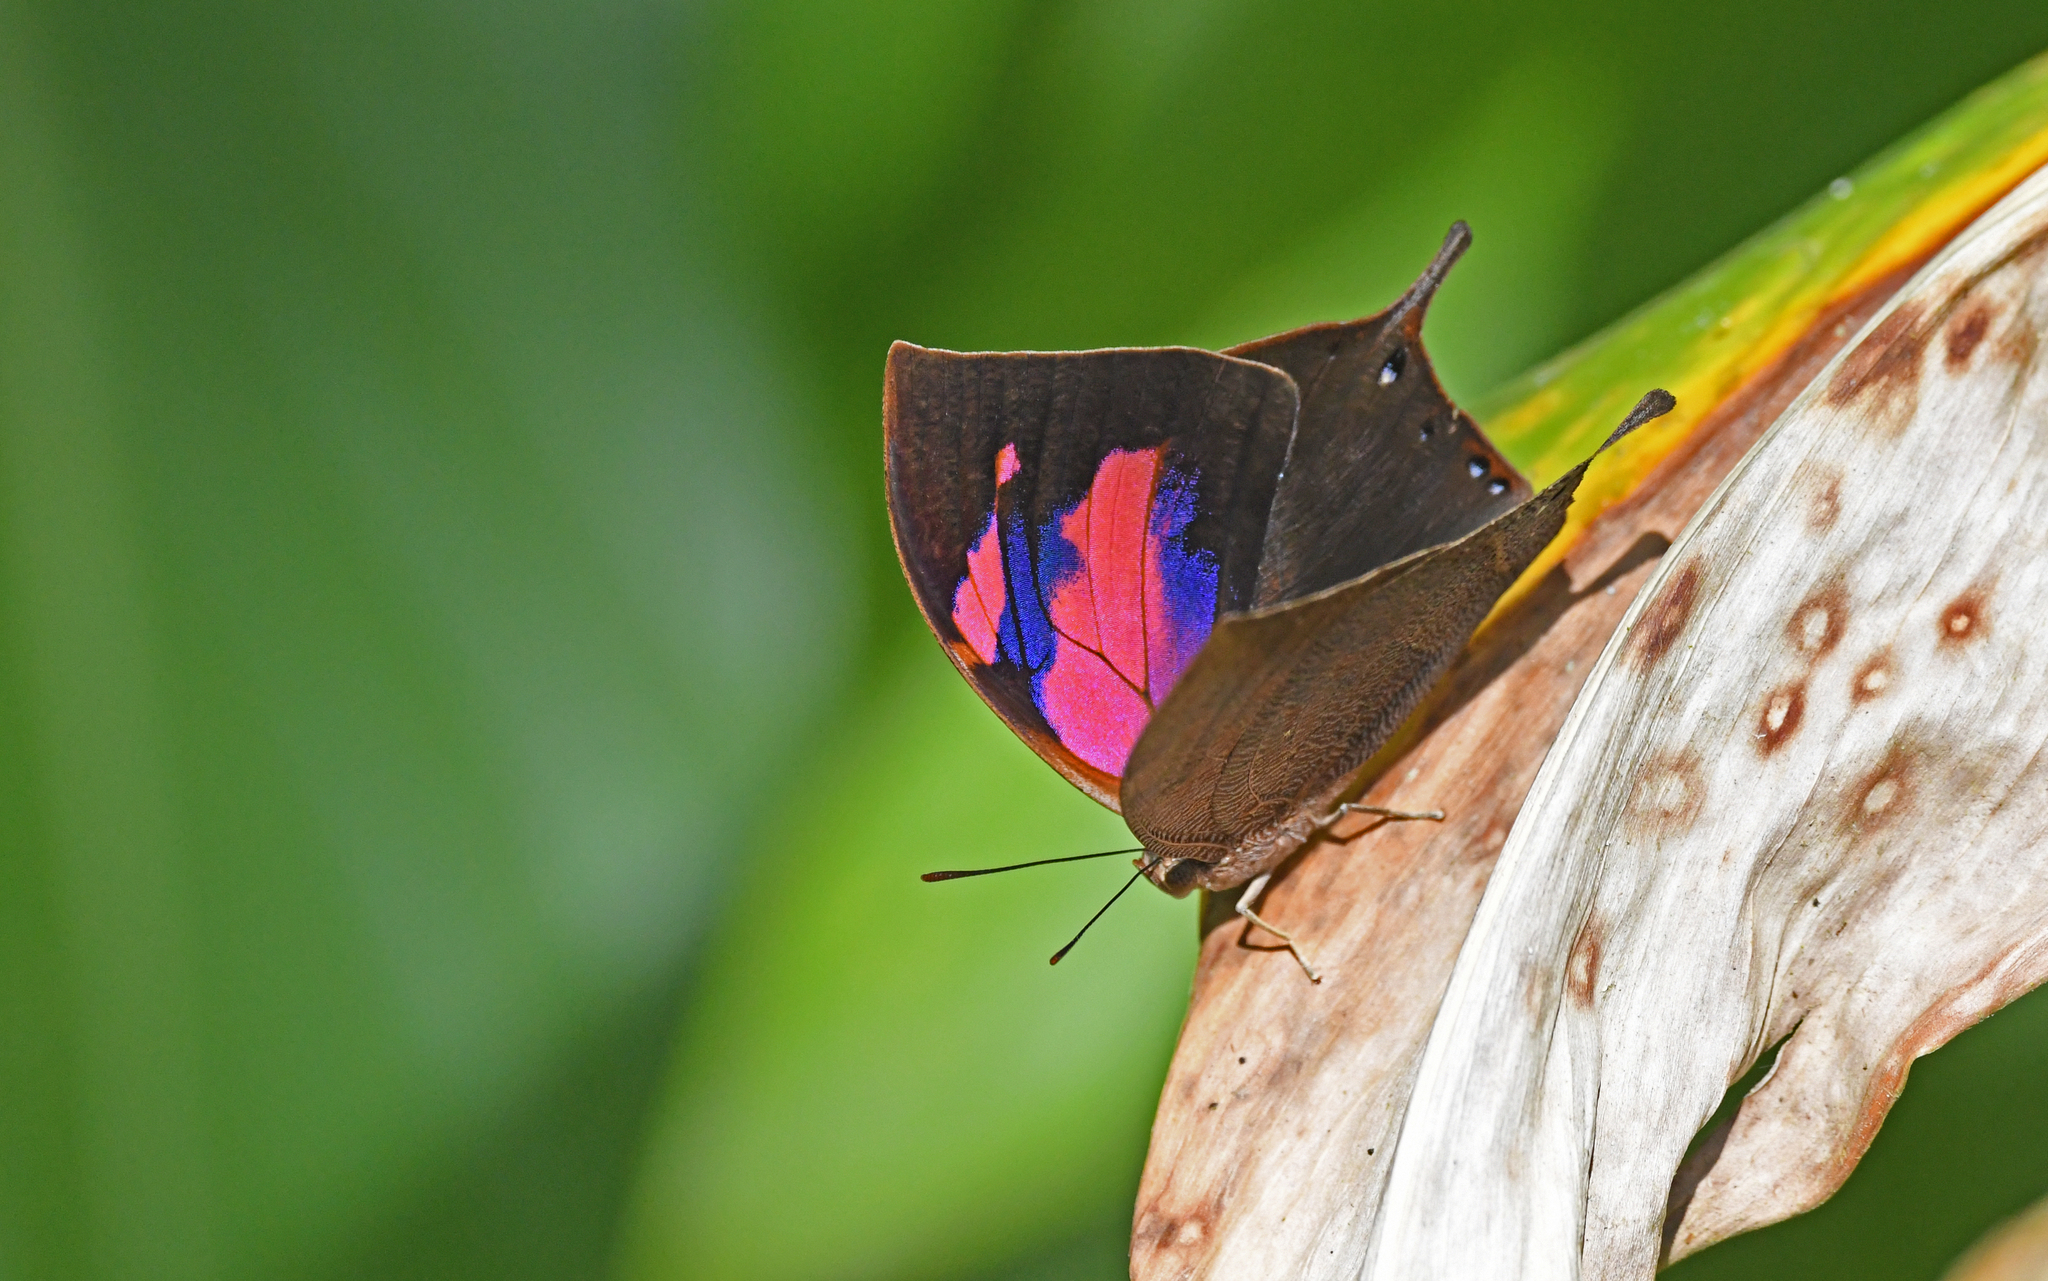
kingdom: Animalia
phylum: Arthropoda
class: Insecta
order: Lepidoptera
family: Nymphalidae
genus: Fountainea
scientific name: Fountainea
